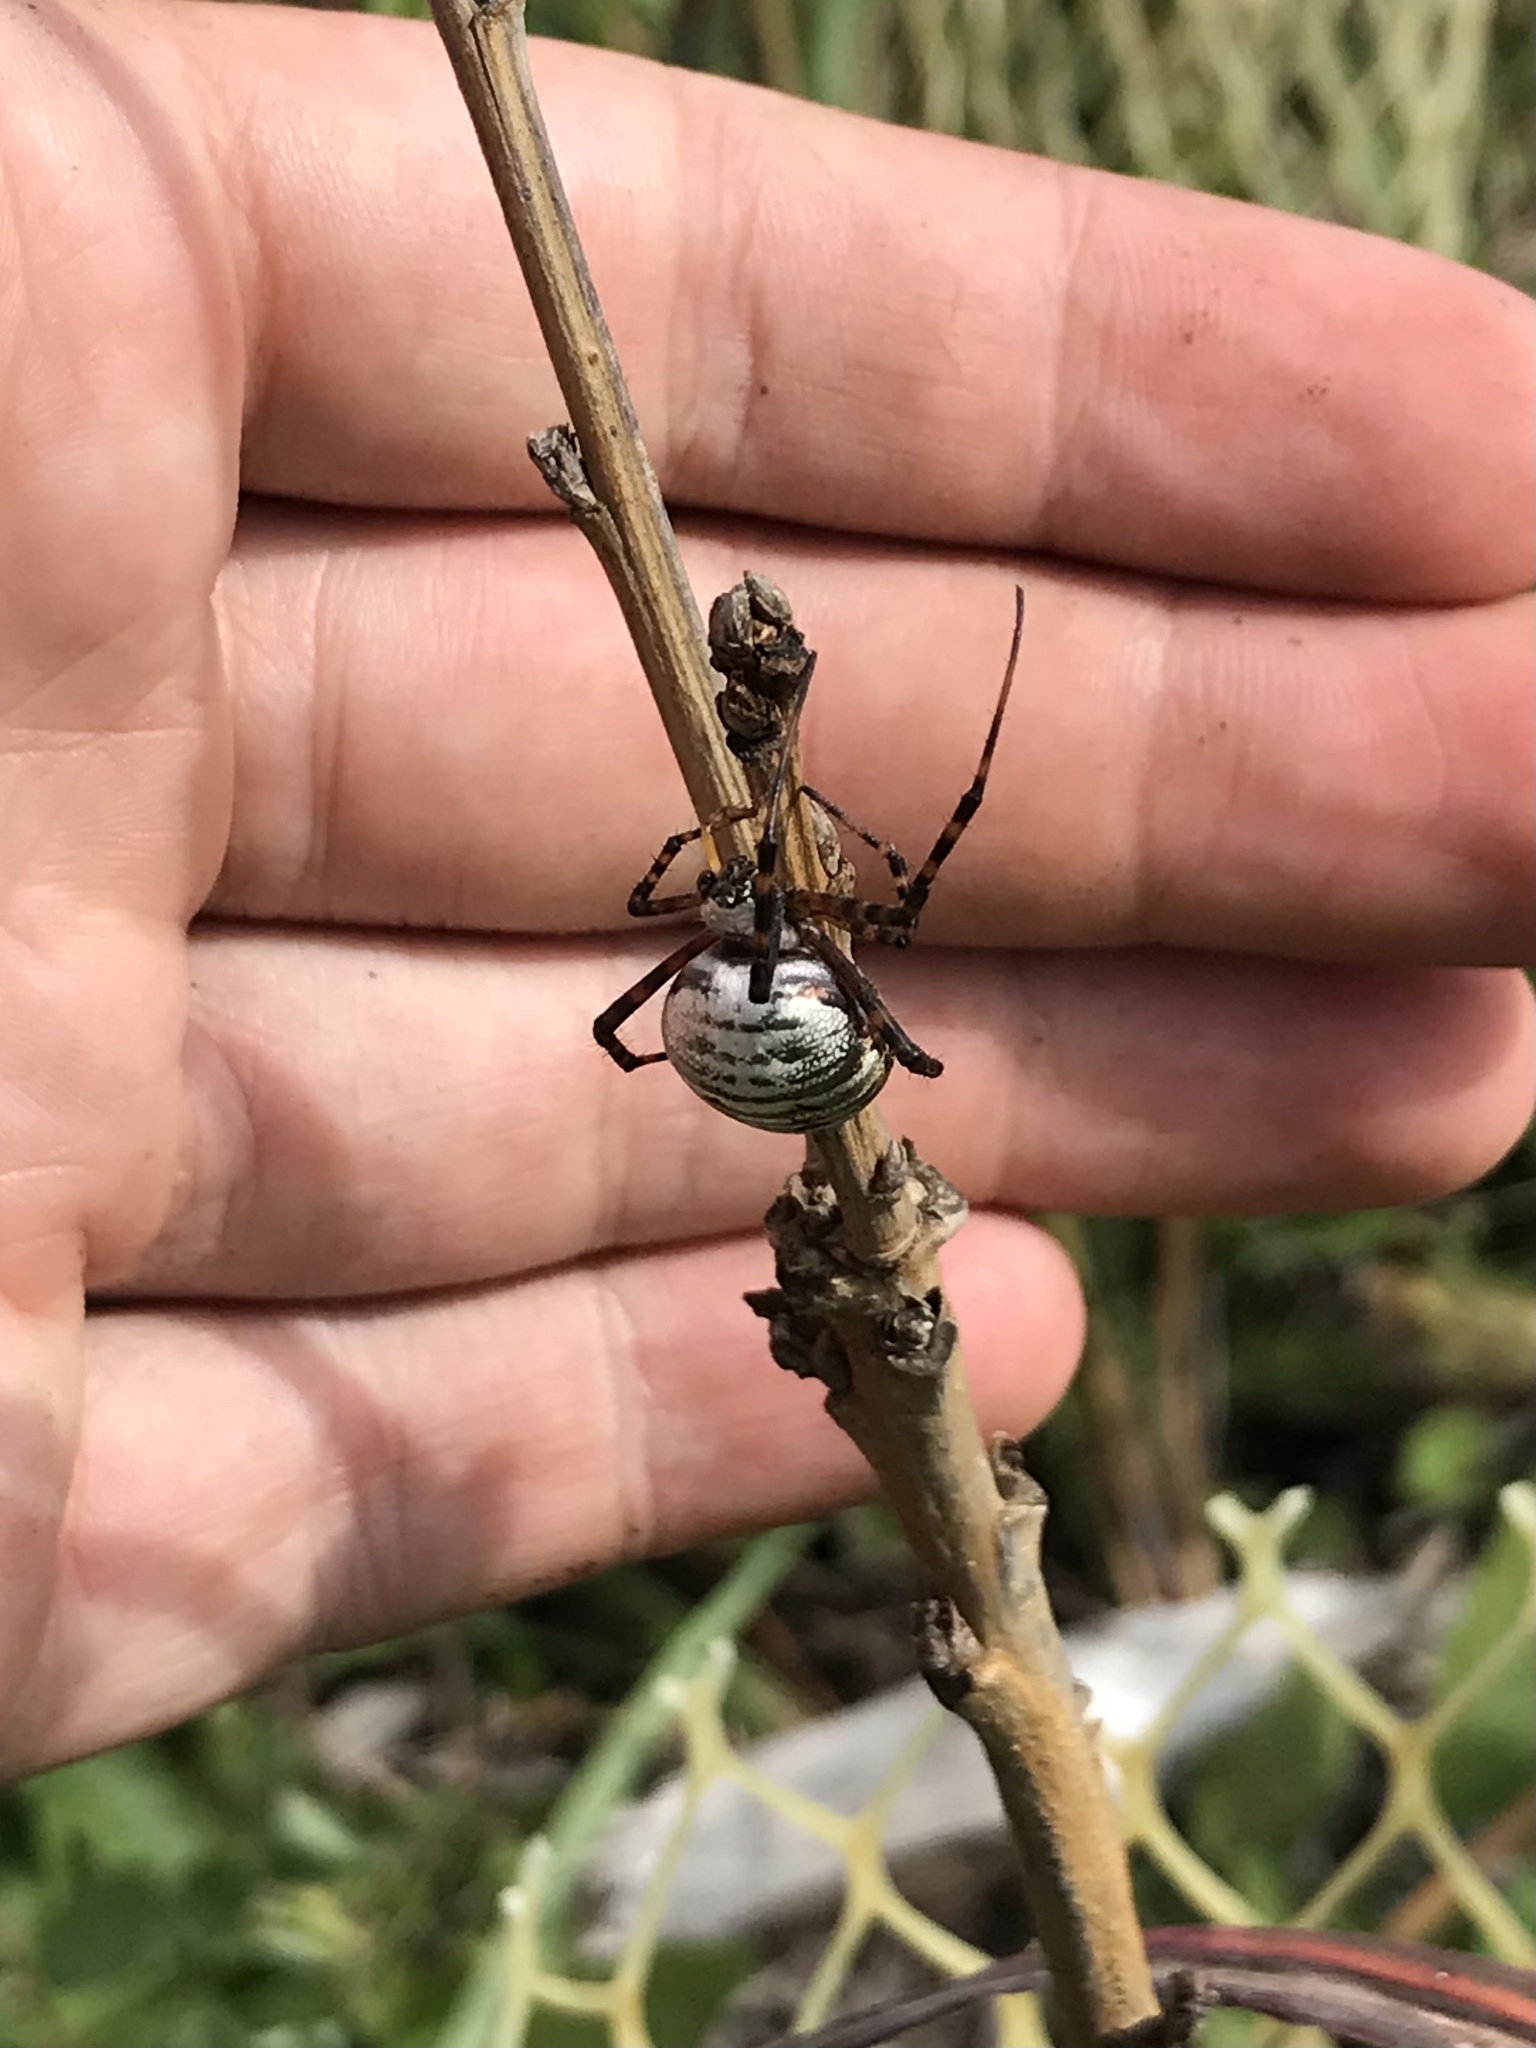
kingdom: Animalia
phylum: Arthropoda
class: Arachnida
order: Araneae
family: Araneidae
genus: Argiope
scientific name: Argiope trifasciata
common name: Banded garden spider
